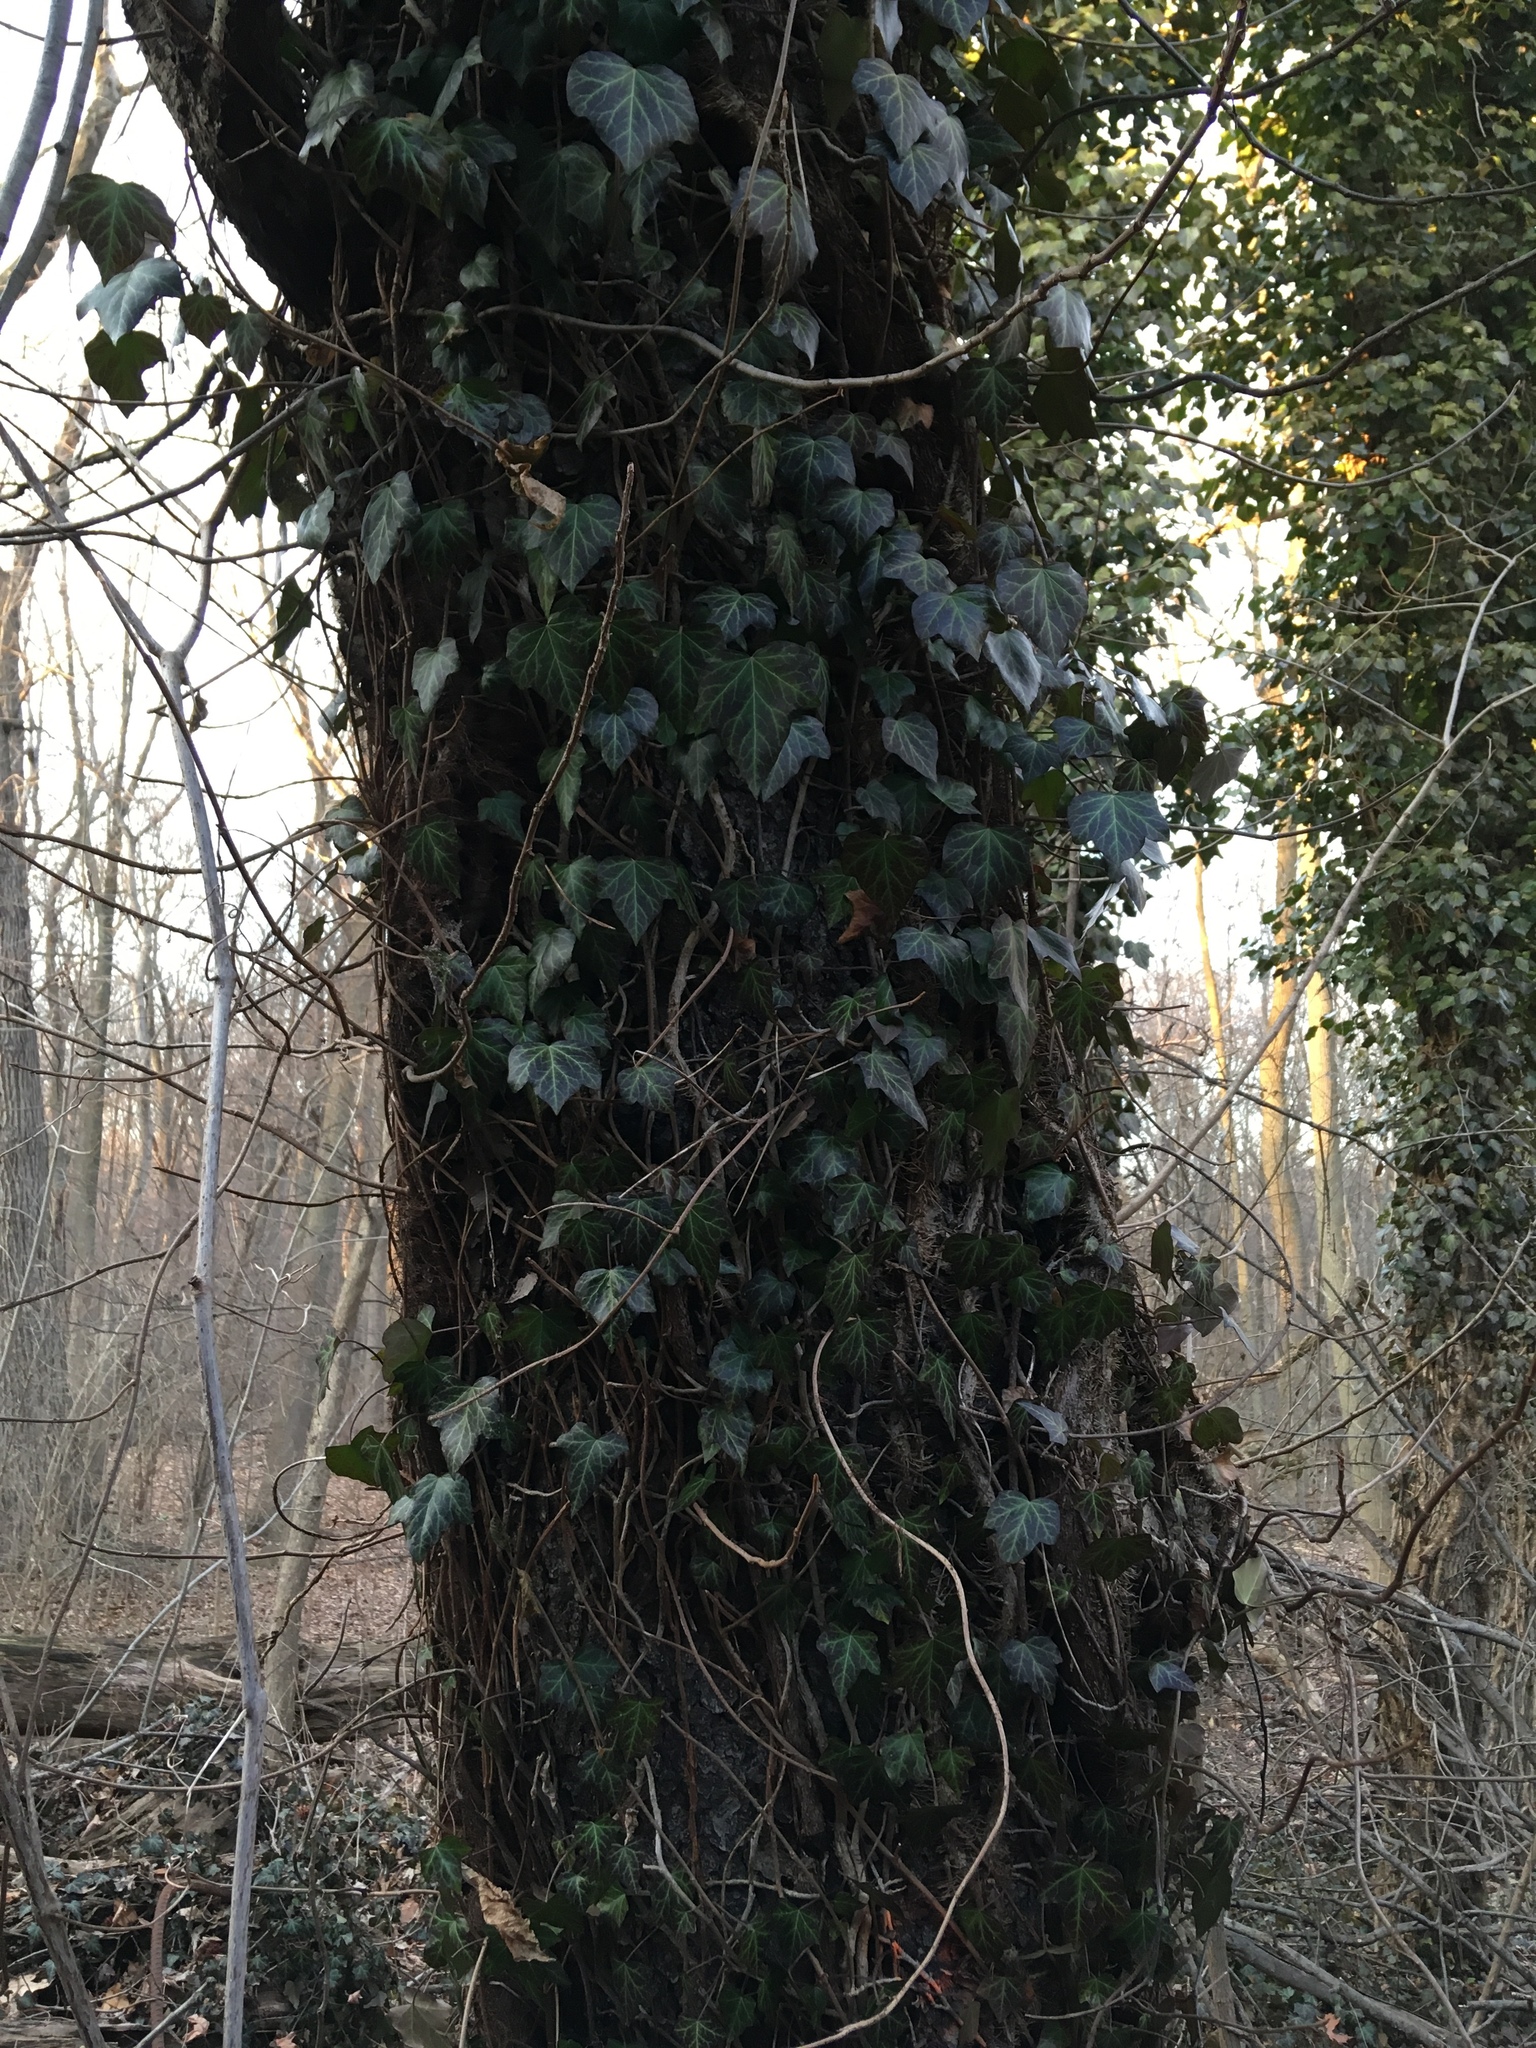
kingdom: Plantae
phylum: Tracheophyta
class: Magnoliopsida
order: Apiales
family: Araliaceae
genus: Hedera
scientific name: Hedera helix
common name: Ivy
